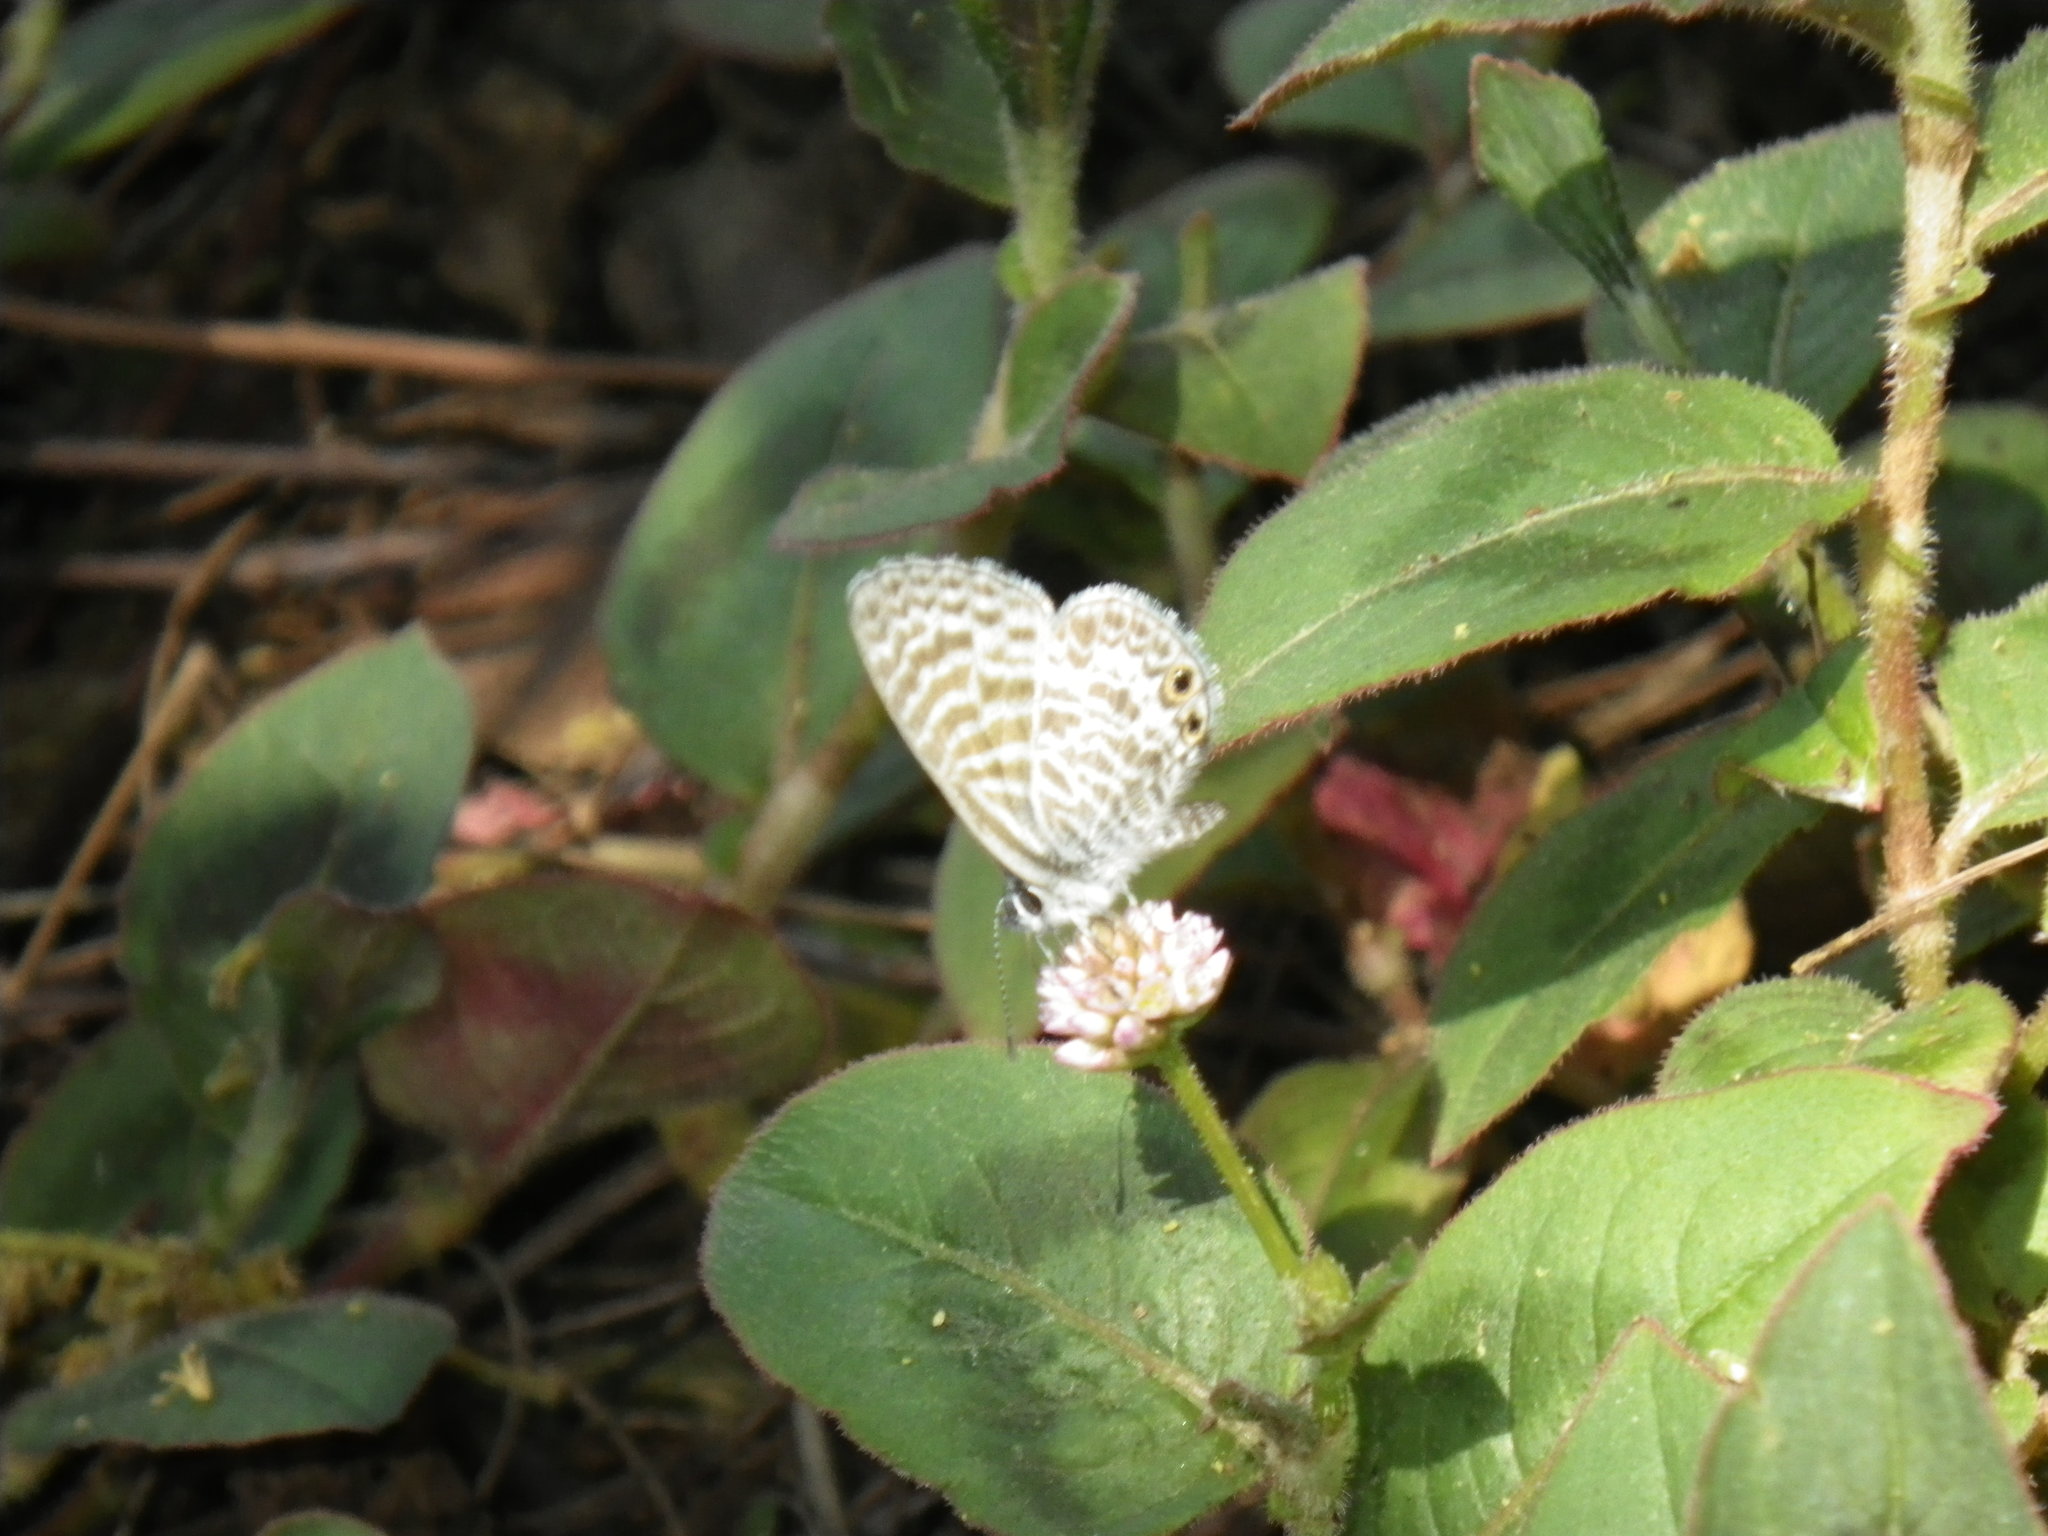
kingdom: Animalia
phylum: Arthropoda
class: Insecta
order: Lepidoptera
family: Lycaenidae
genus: Leptotes
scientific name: Leptotes marina
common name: Marine blue
